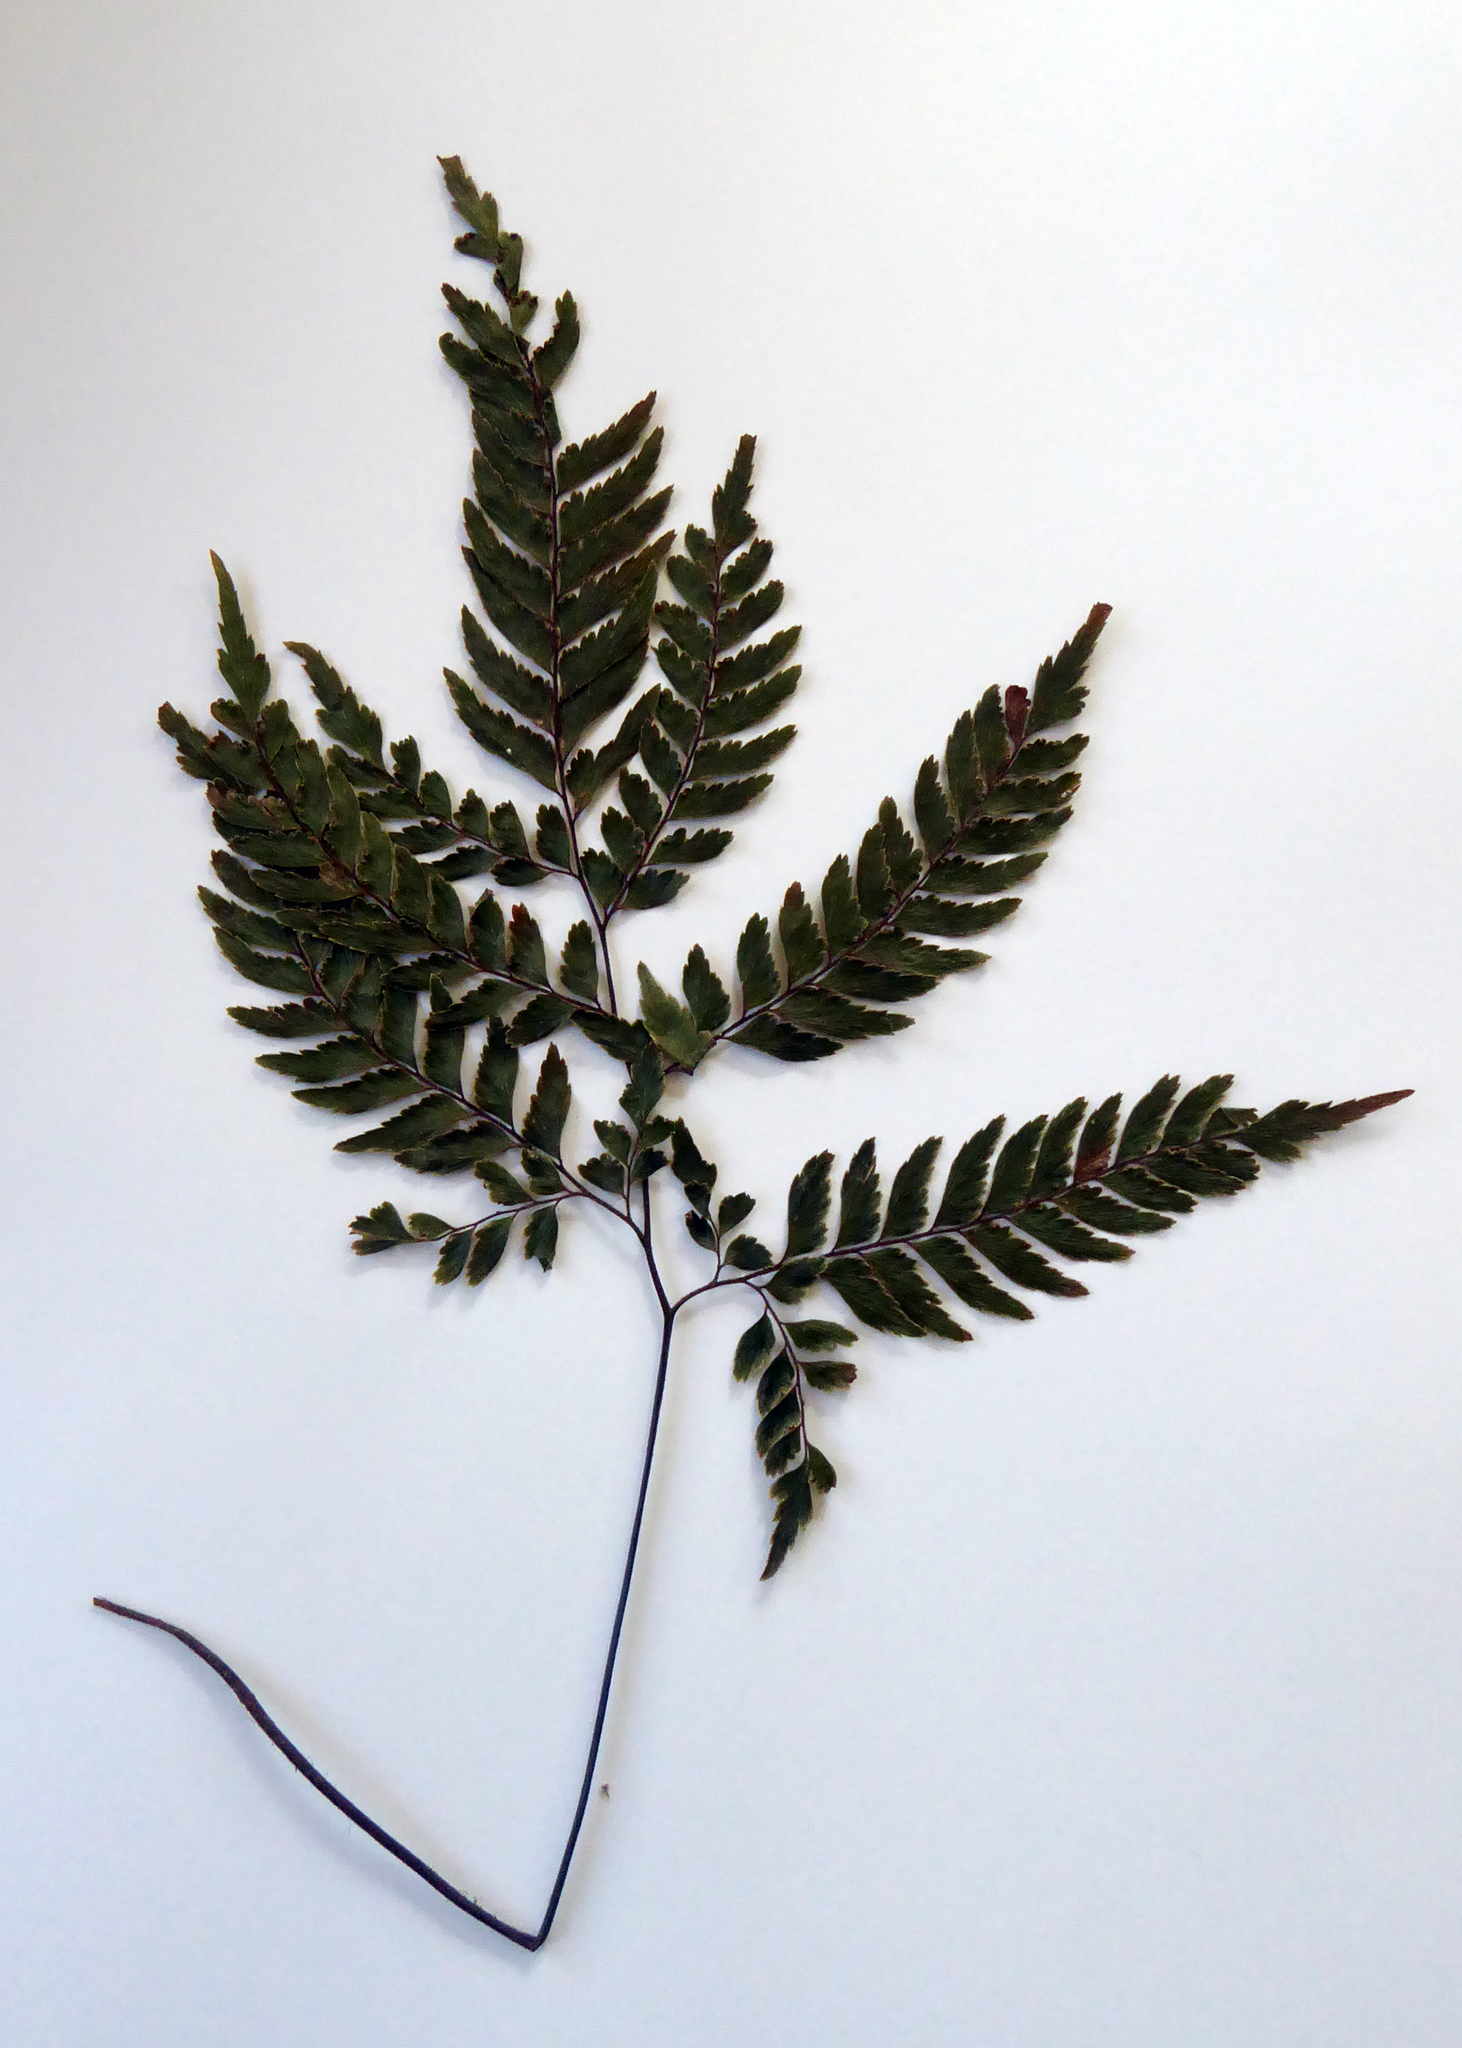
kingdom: Plantae
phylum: Tracheophyta
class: Polypodiopsida
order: Polypodiales
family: Pteridaceae
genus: Adiantum
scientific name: Adiantum fulvum
